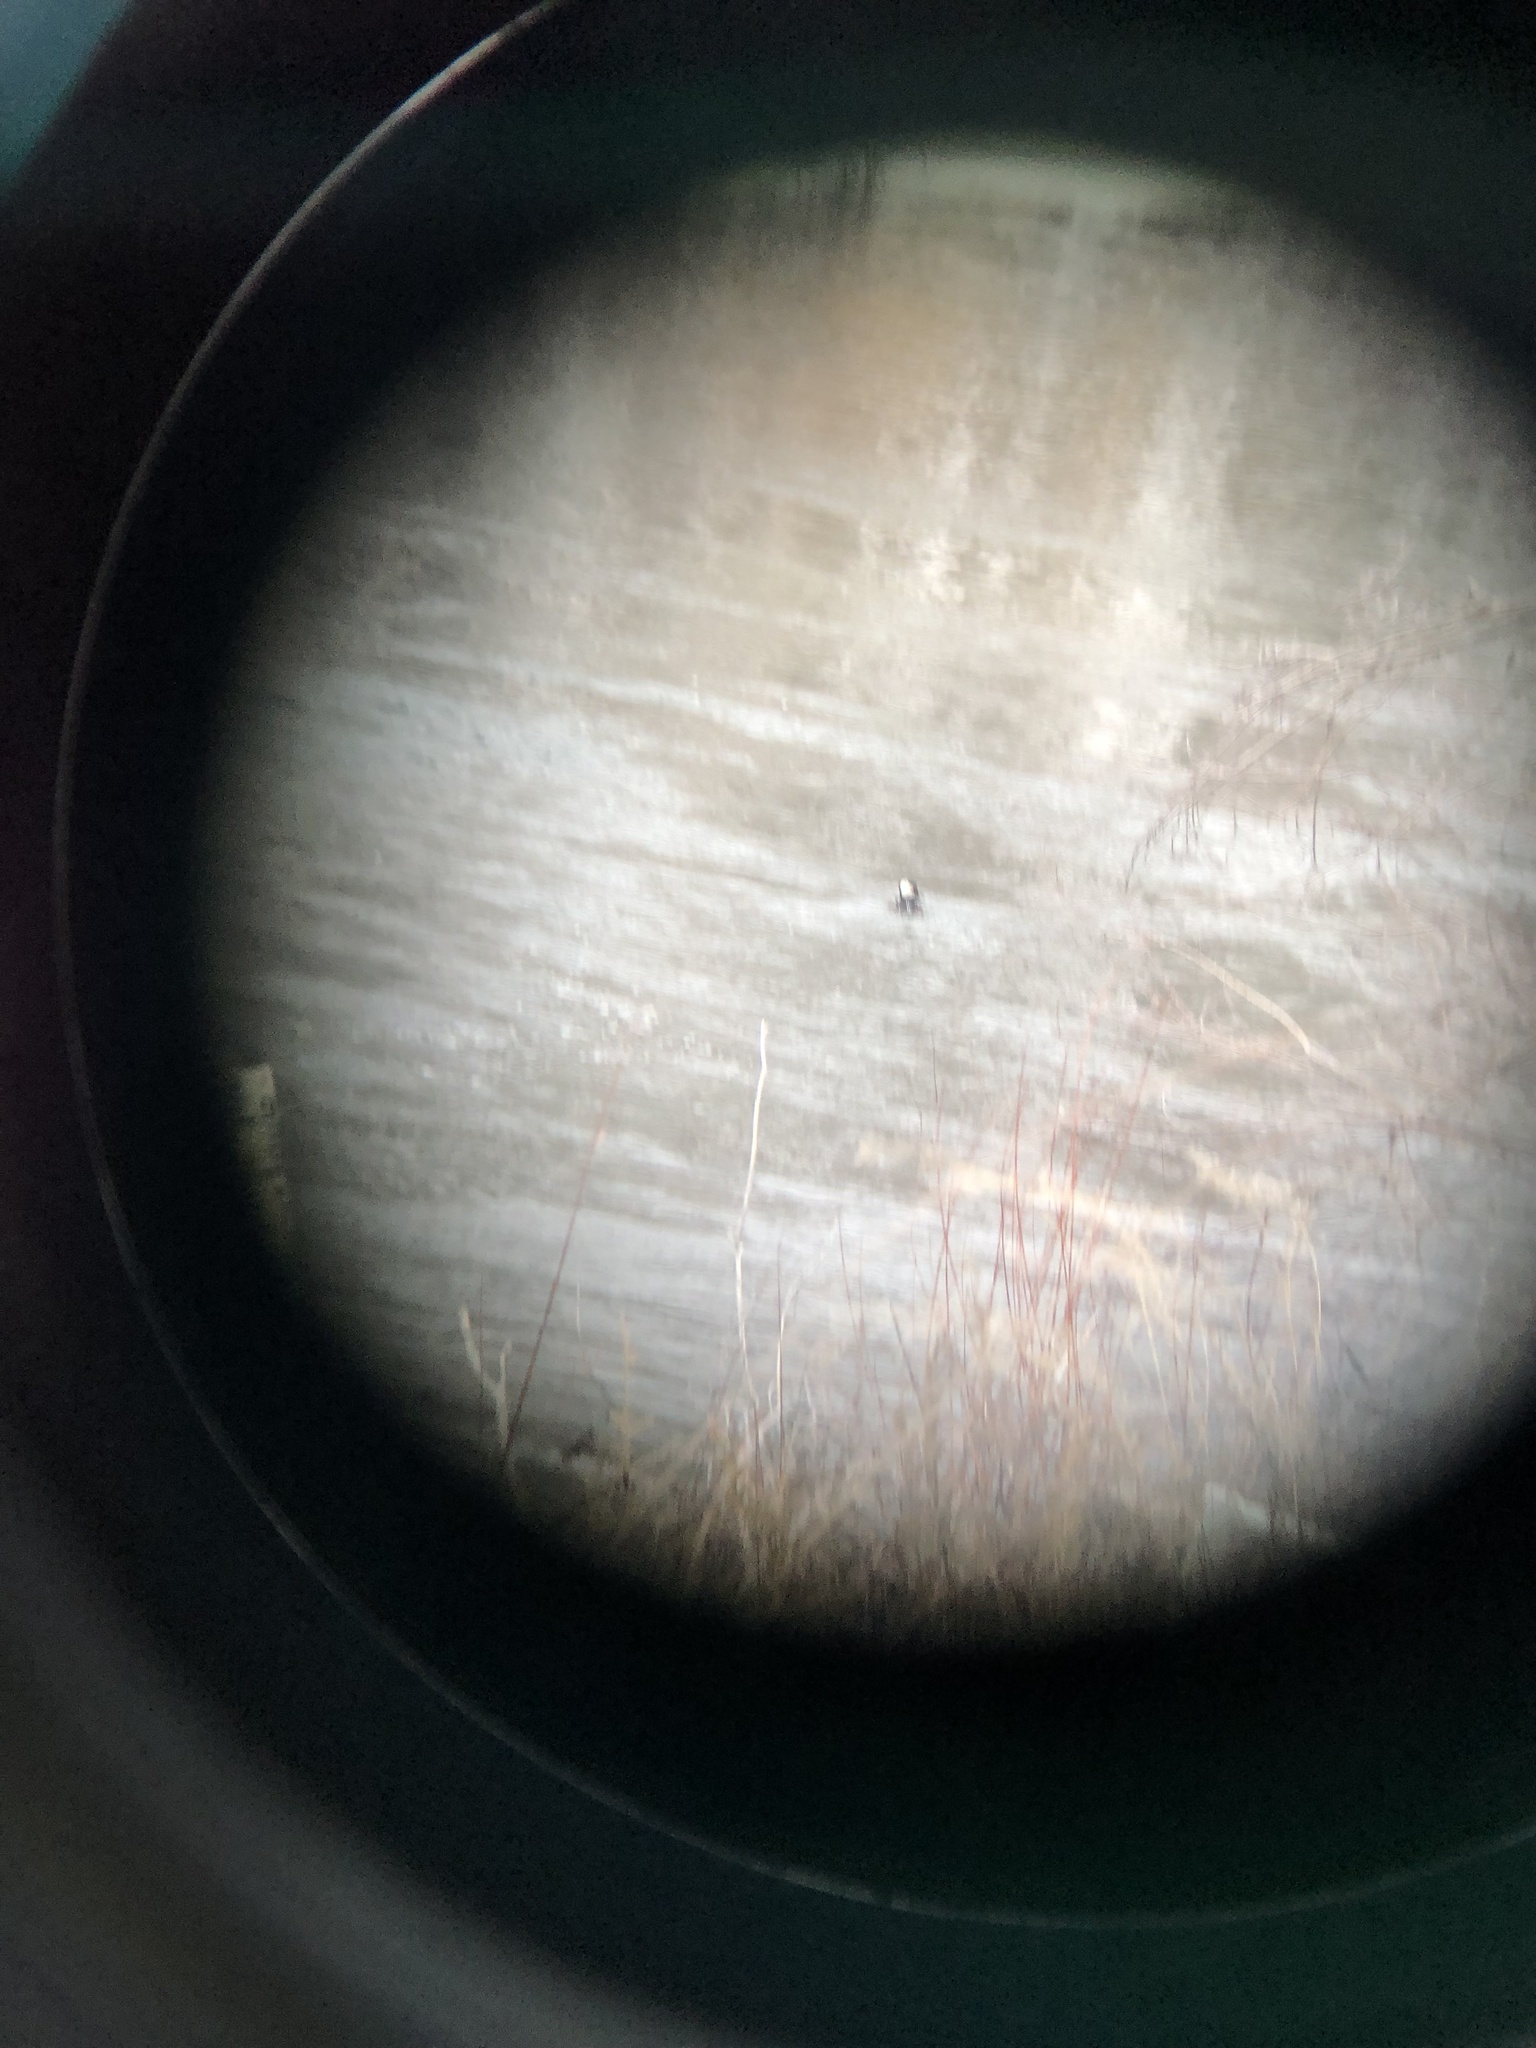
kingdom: Animalia
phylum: Chordata
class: Aves
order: Anseriformes
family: Anatidae
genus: Lophodytes
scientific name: Lophodytes cucullatus
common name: Hooded merganser
